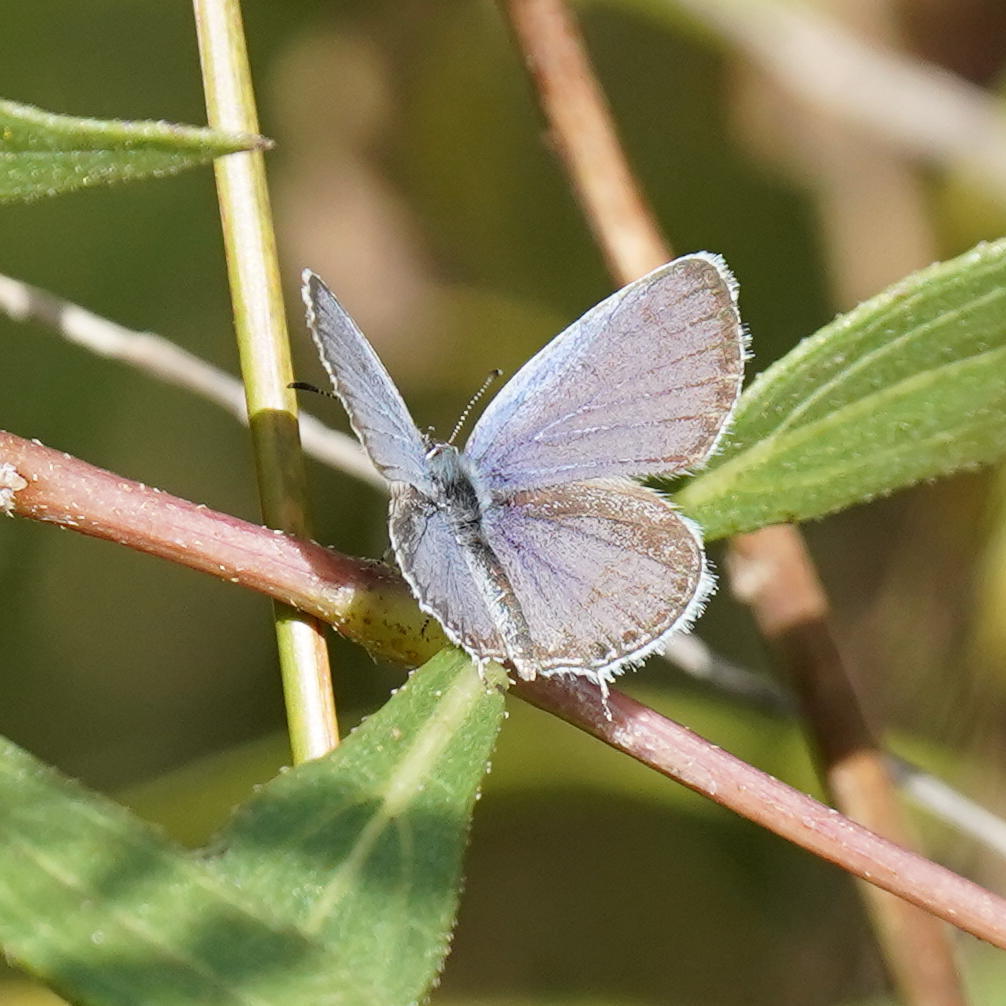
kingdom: Animalia
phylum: Arthropoda
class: Insecta
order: Lepidoptera
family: Lycaenidae
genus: Elkalyce
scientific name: Elkalyce comyntas
